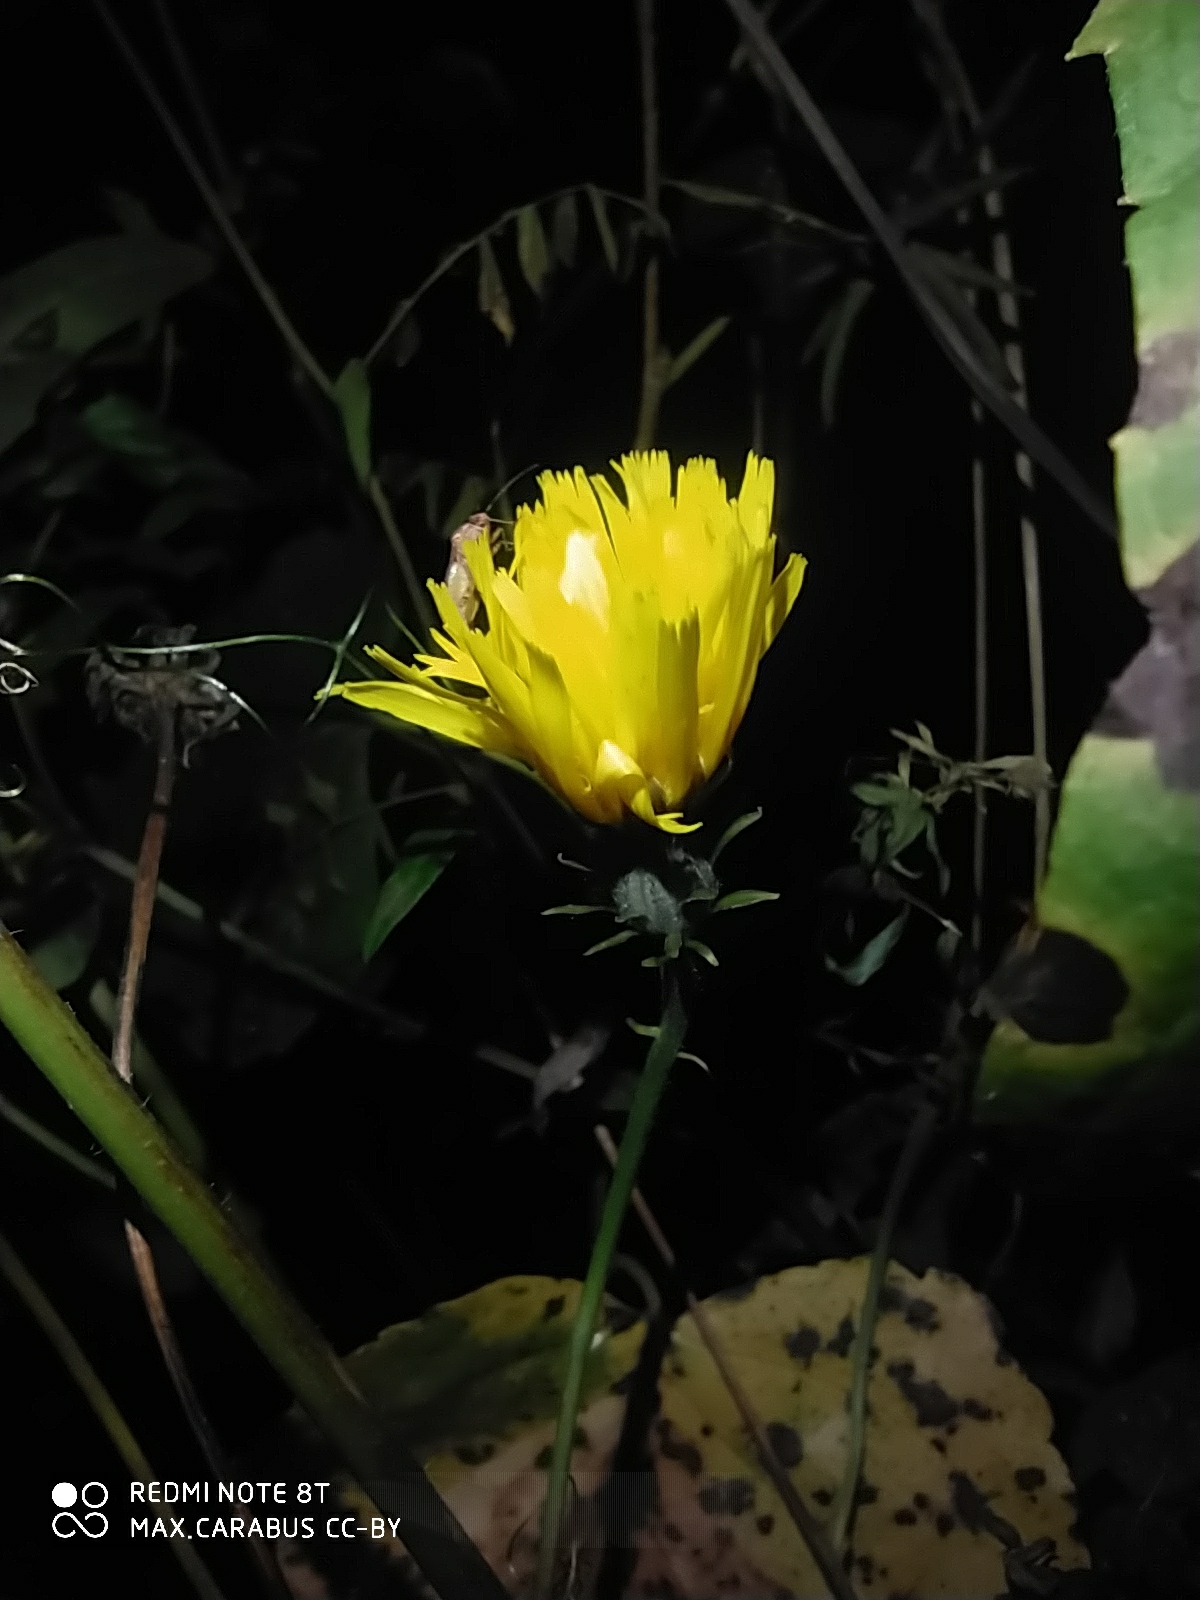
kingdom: Plantae
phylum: Tracheophyta
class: Magnoliopsida
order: Asterales
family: Asteraceae
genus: Picris
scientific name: Picris hieracioides
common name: Hawkweed oxtongue
